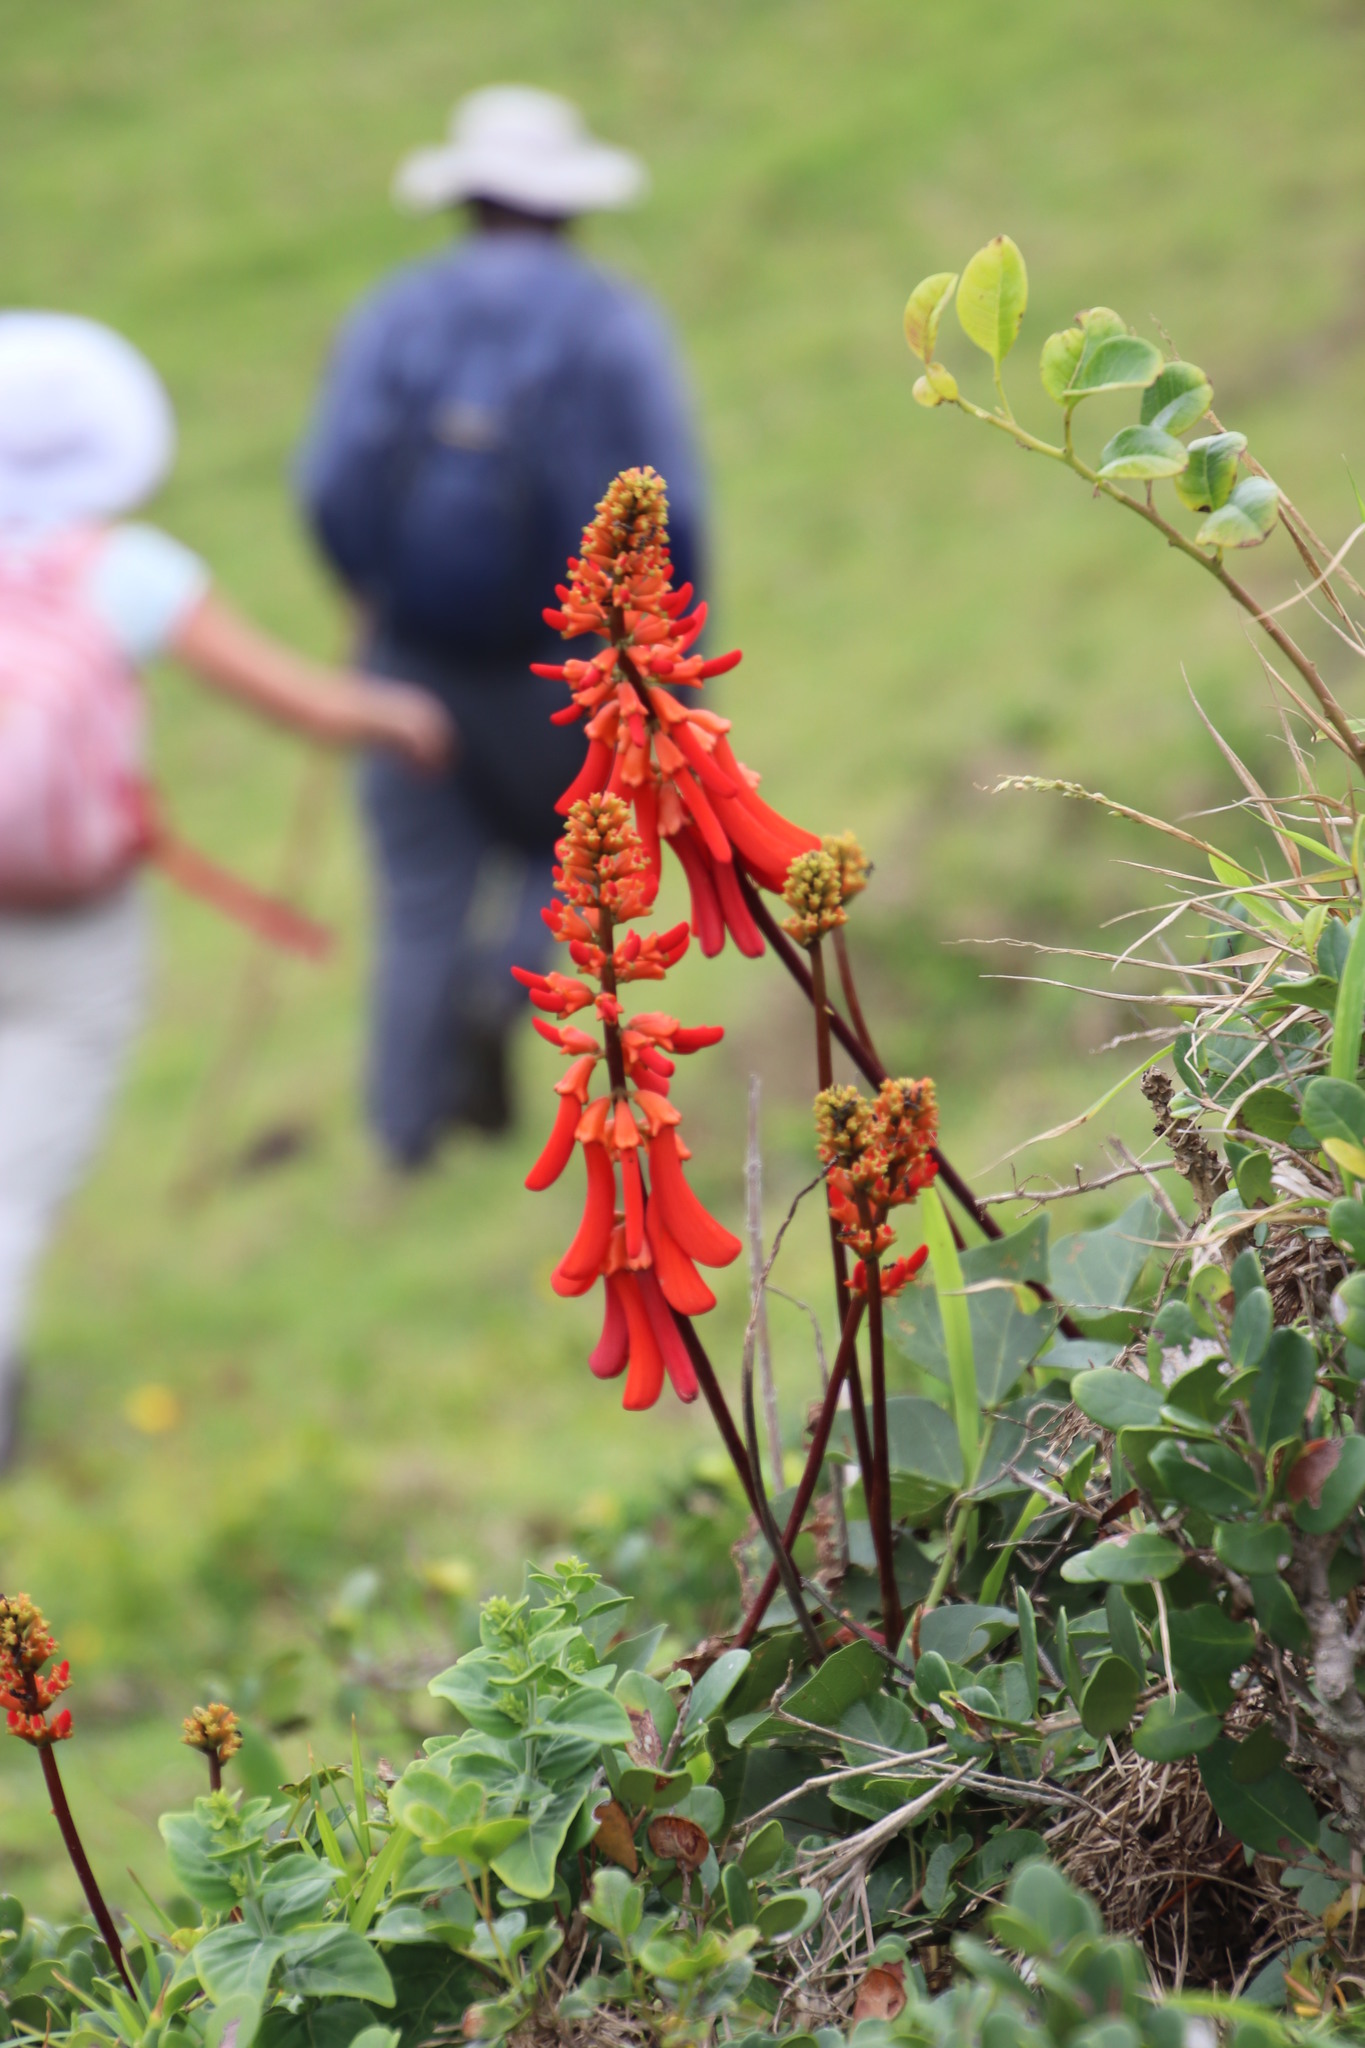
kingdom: Plantae
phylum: Tracheophyta
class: Magnoliopsida
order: Fabales
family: Fabaceae
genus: Erythrina
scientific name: Erythrina humeana
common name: Dwarf coral tree
